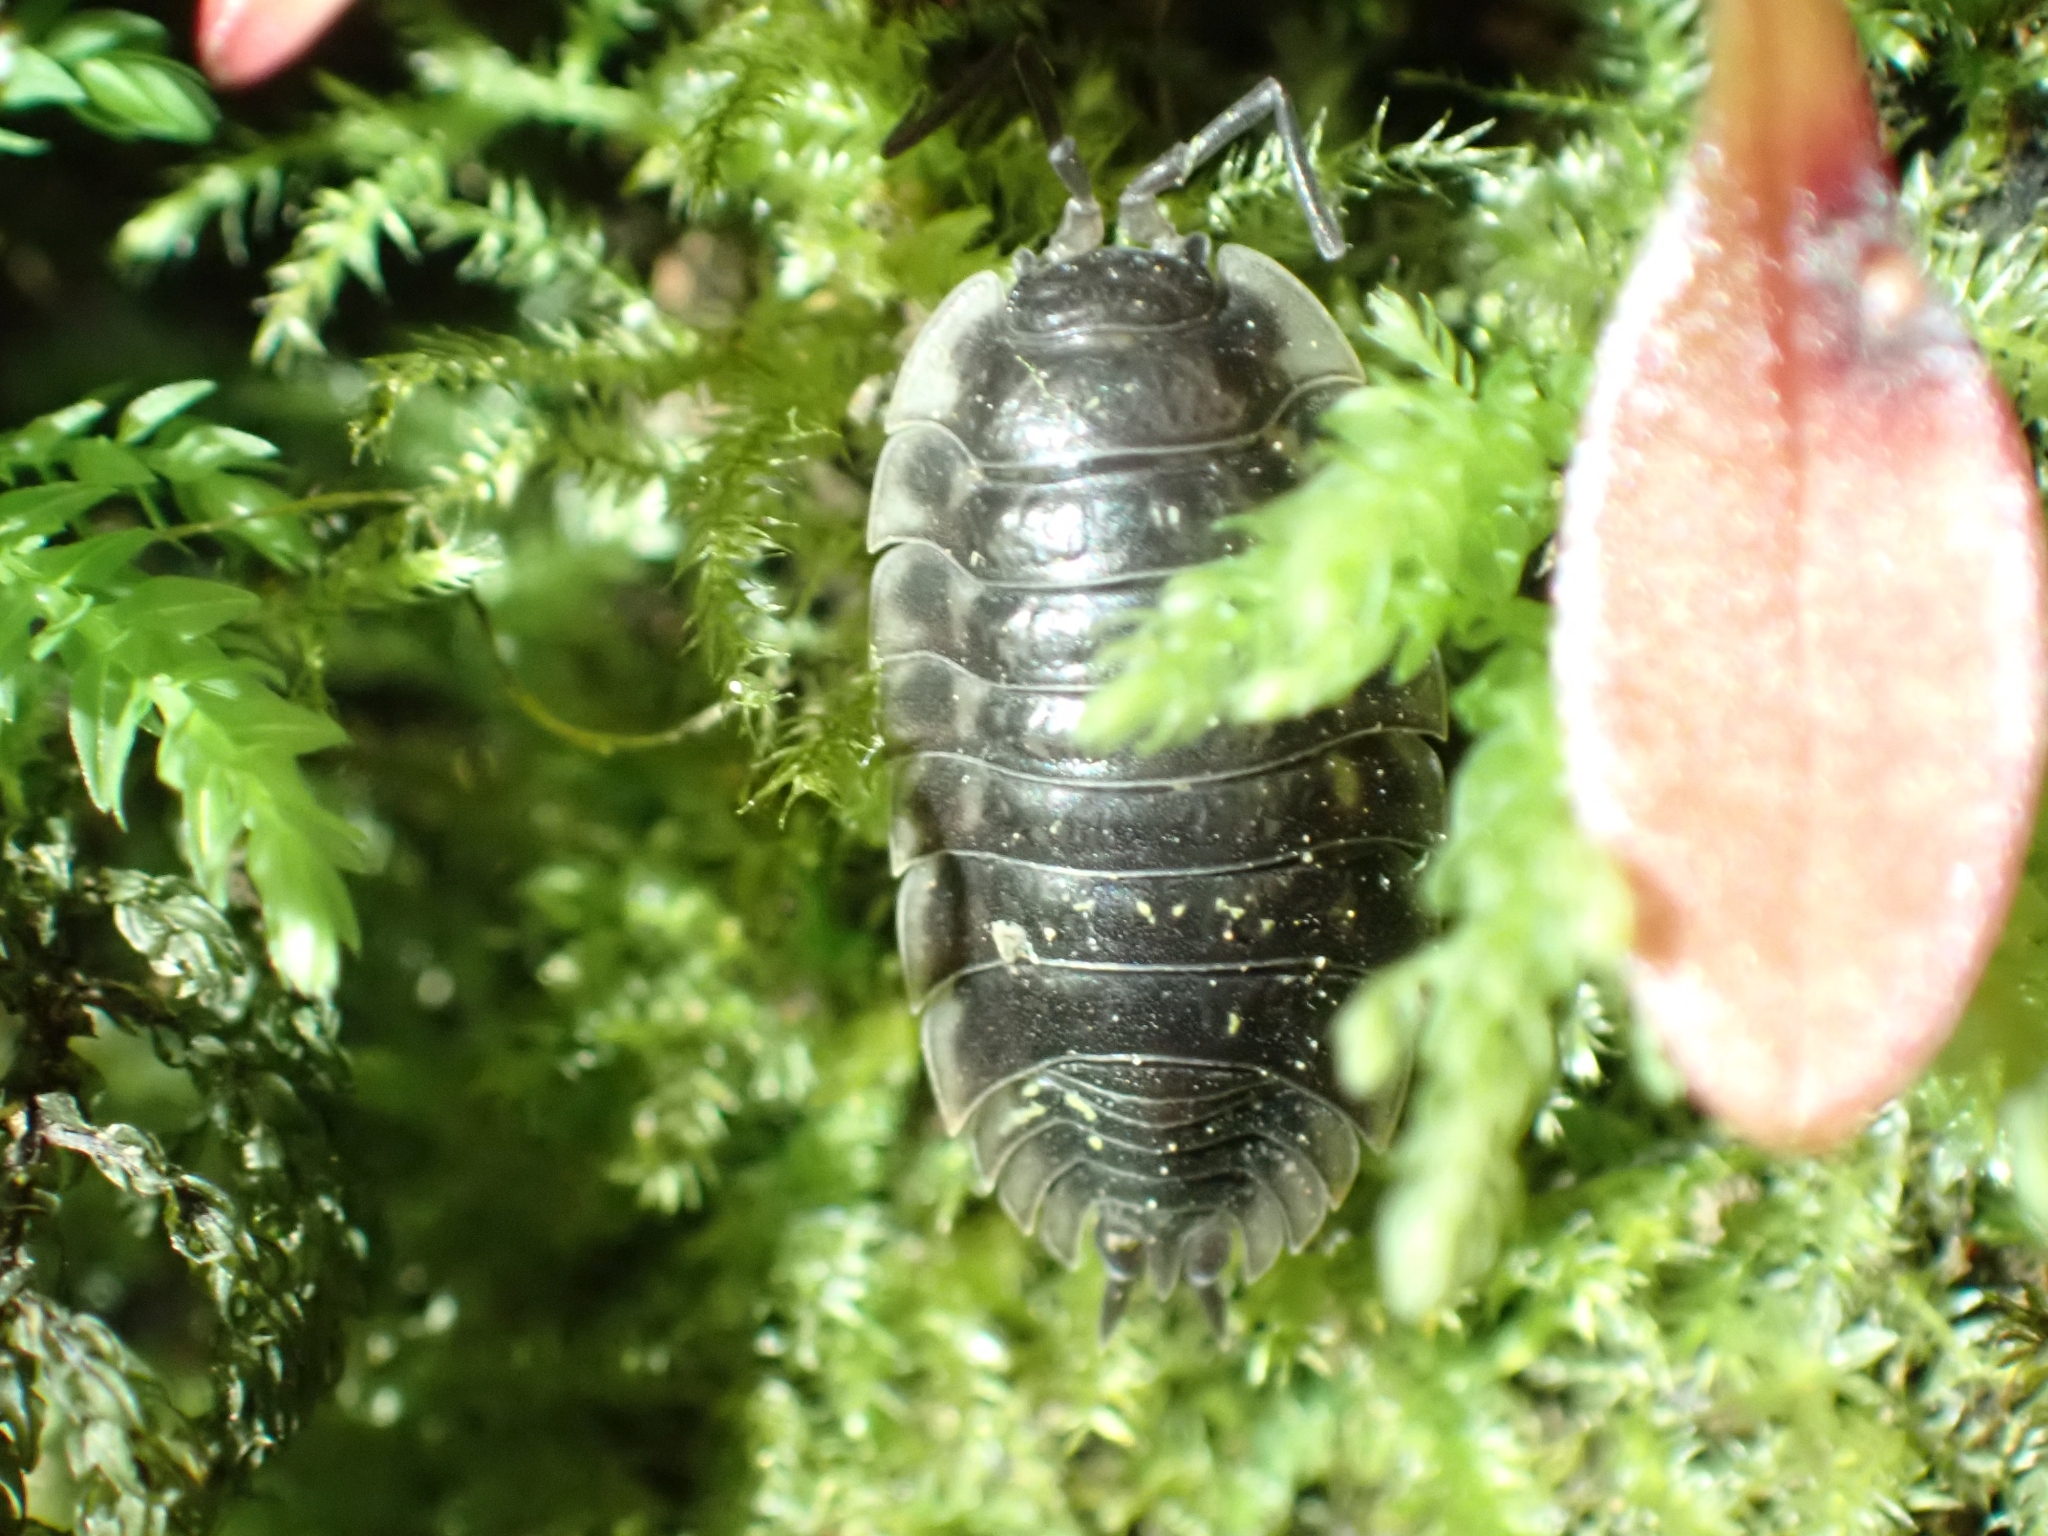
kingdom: Animalia
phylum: Arthropoda
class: Malacostraca
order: Isopoda
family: Oniscidae
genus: Oniscus
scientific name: Oniscus asellus
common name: Common shiny woodlouse
